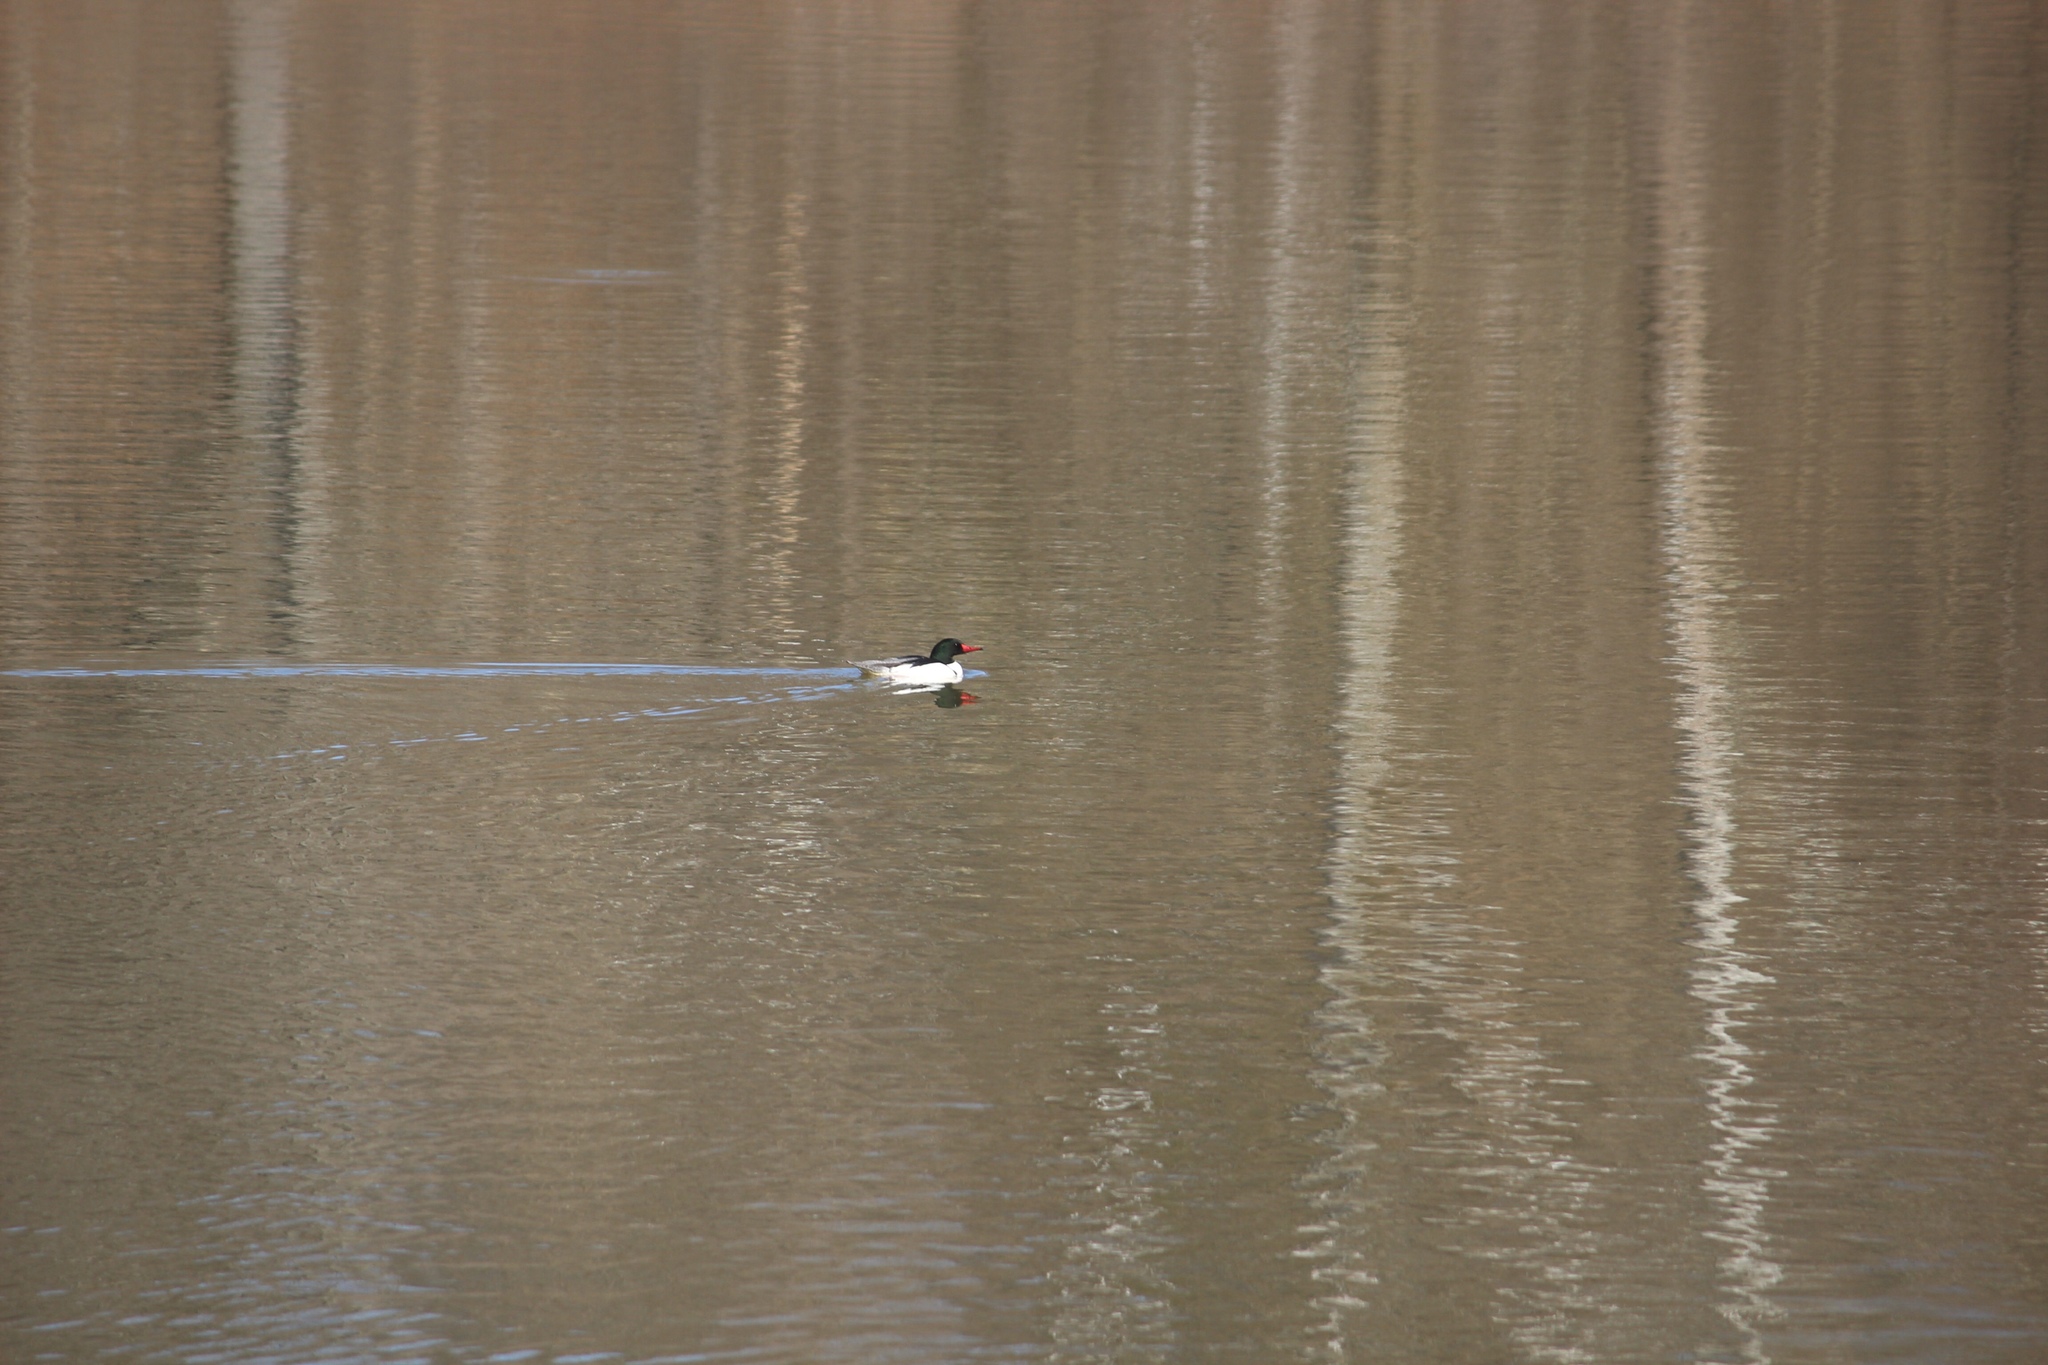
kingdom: Animalia
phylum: Chordata
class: Aves
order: Anseriformes
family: Anatidae
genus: Mergus
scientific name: Mergus merganser
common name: Common merganser
